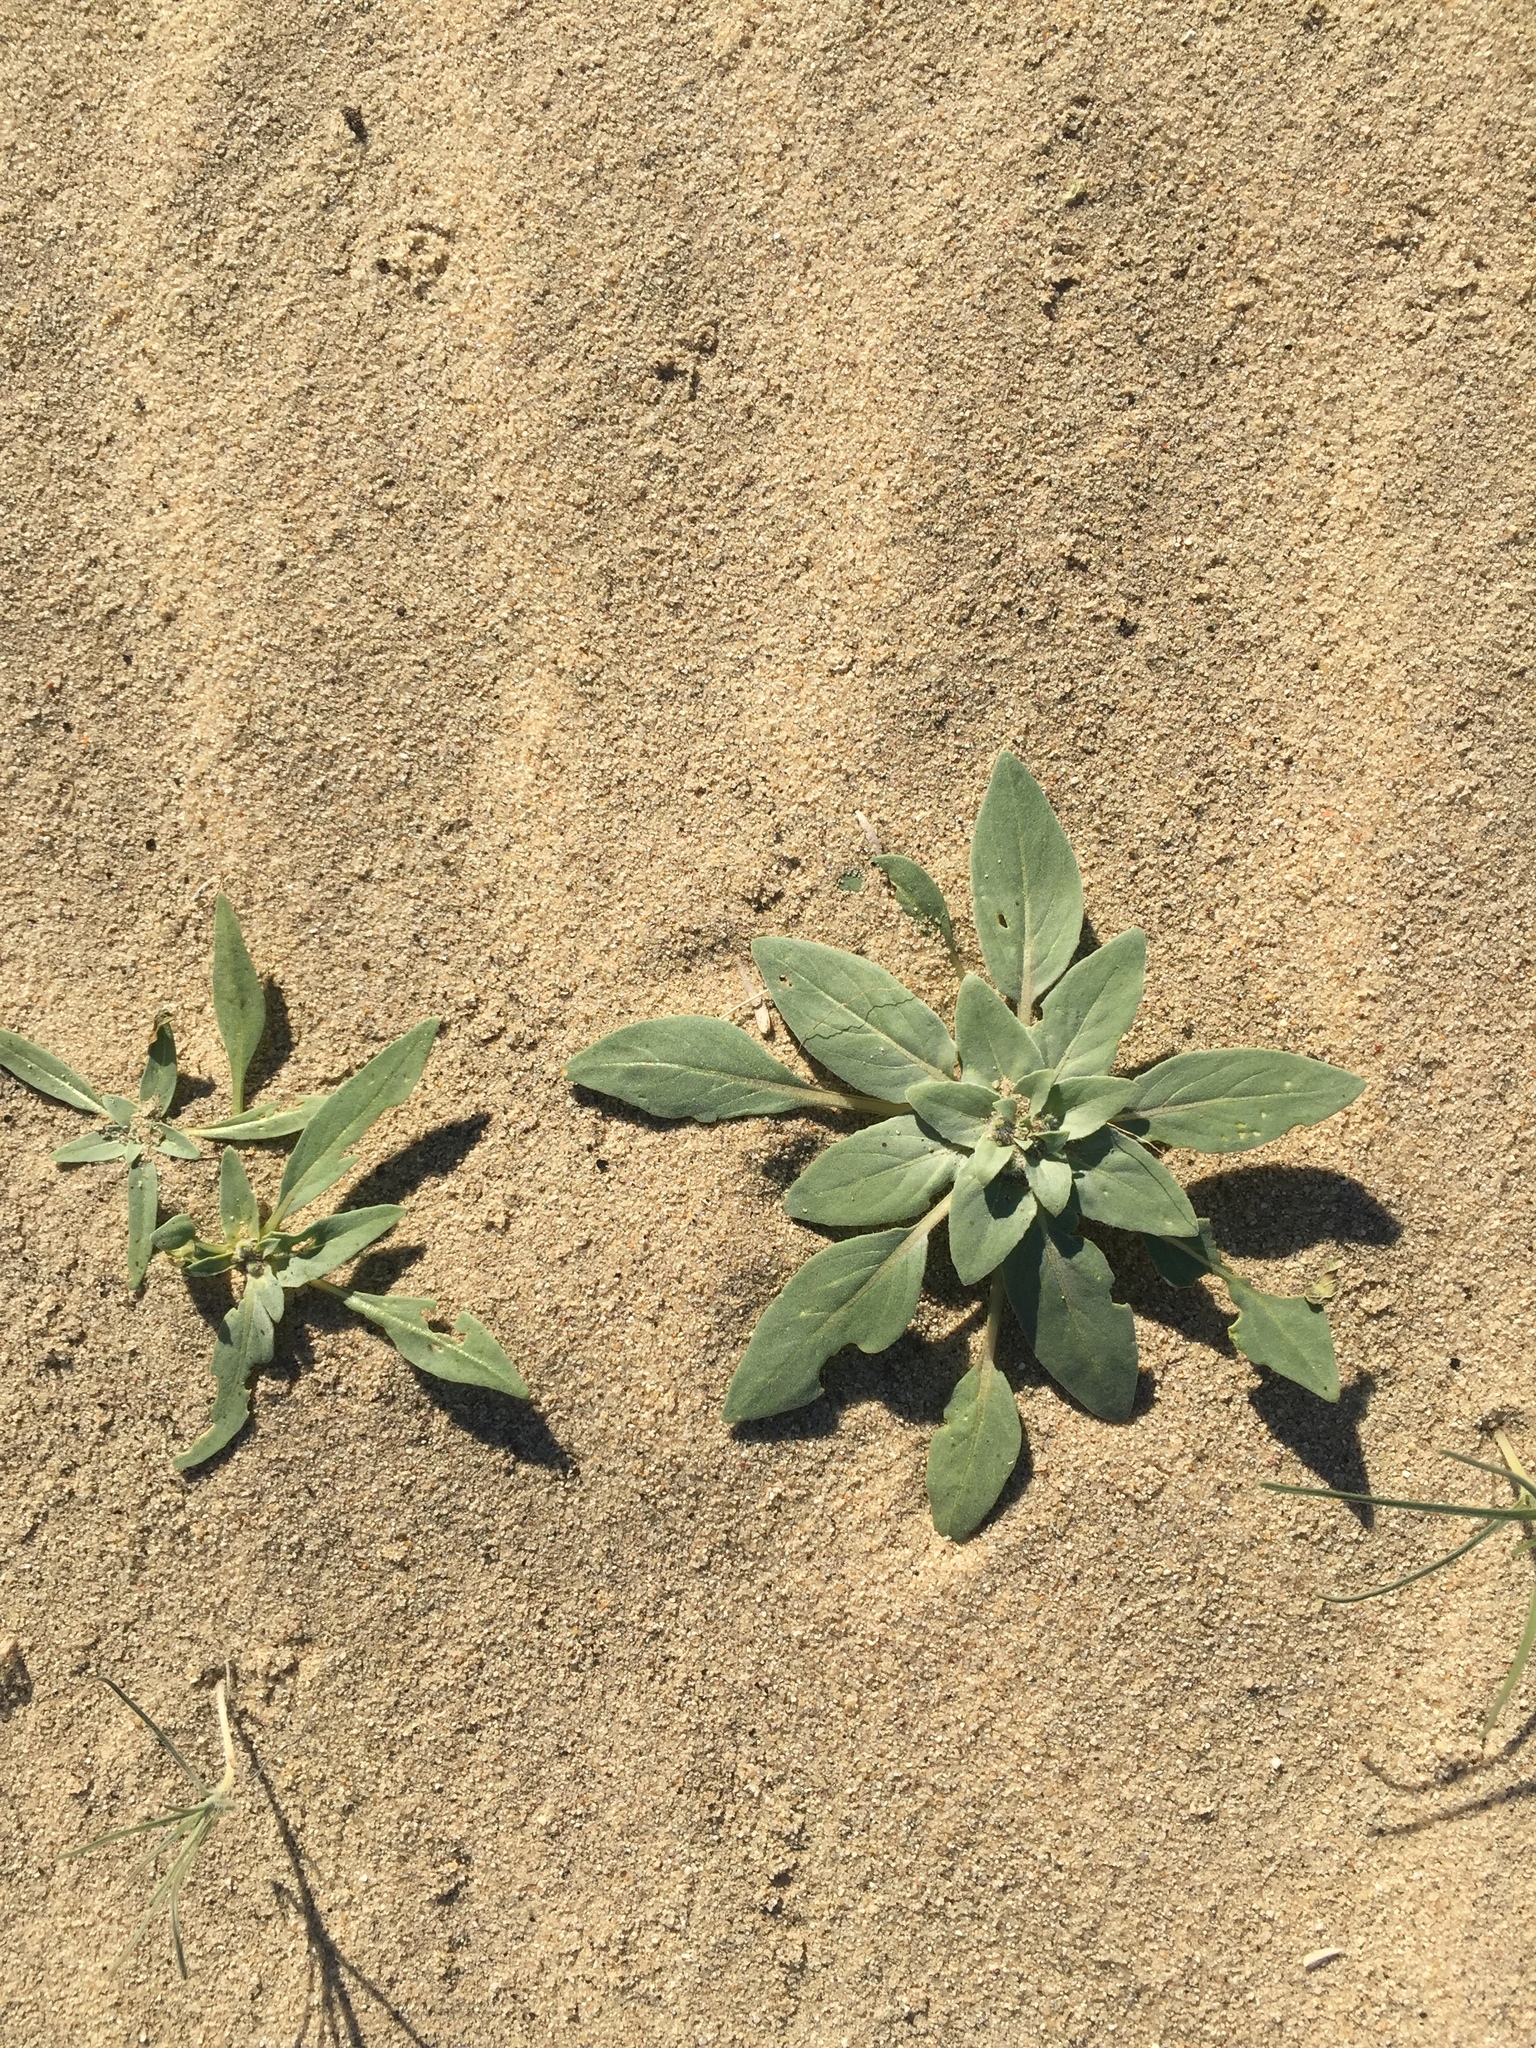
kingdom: Plantae
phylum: Tracheophyta
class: Magnoliopsida
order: Myrtales
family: Onagraceae
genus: Oenothera
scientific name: Oenothera deltoides
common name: Basket evening-primrose
